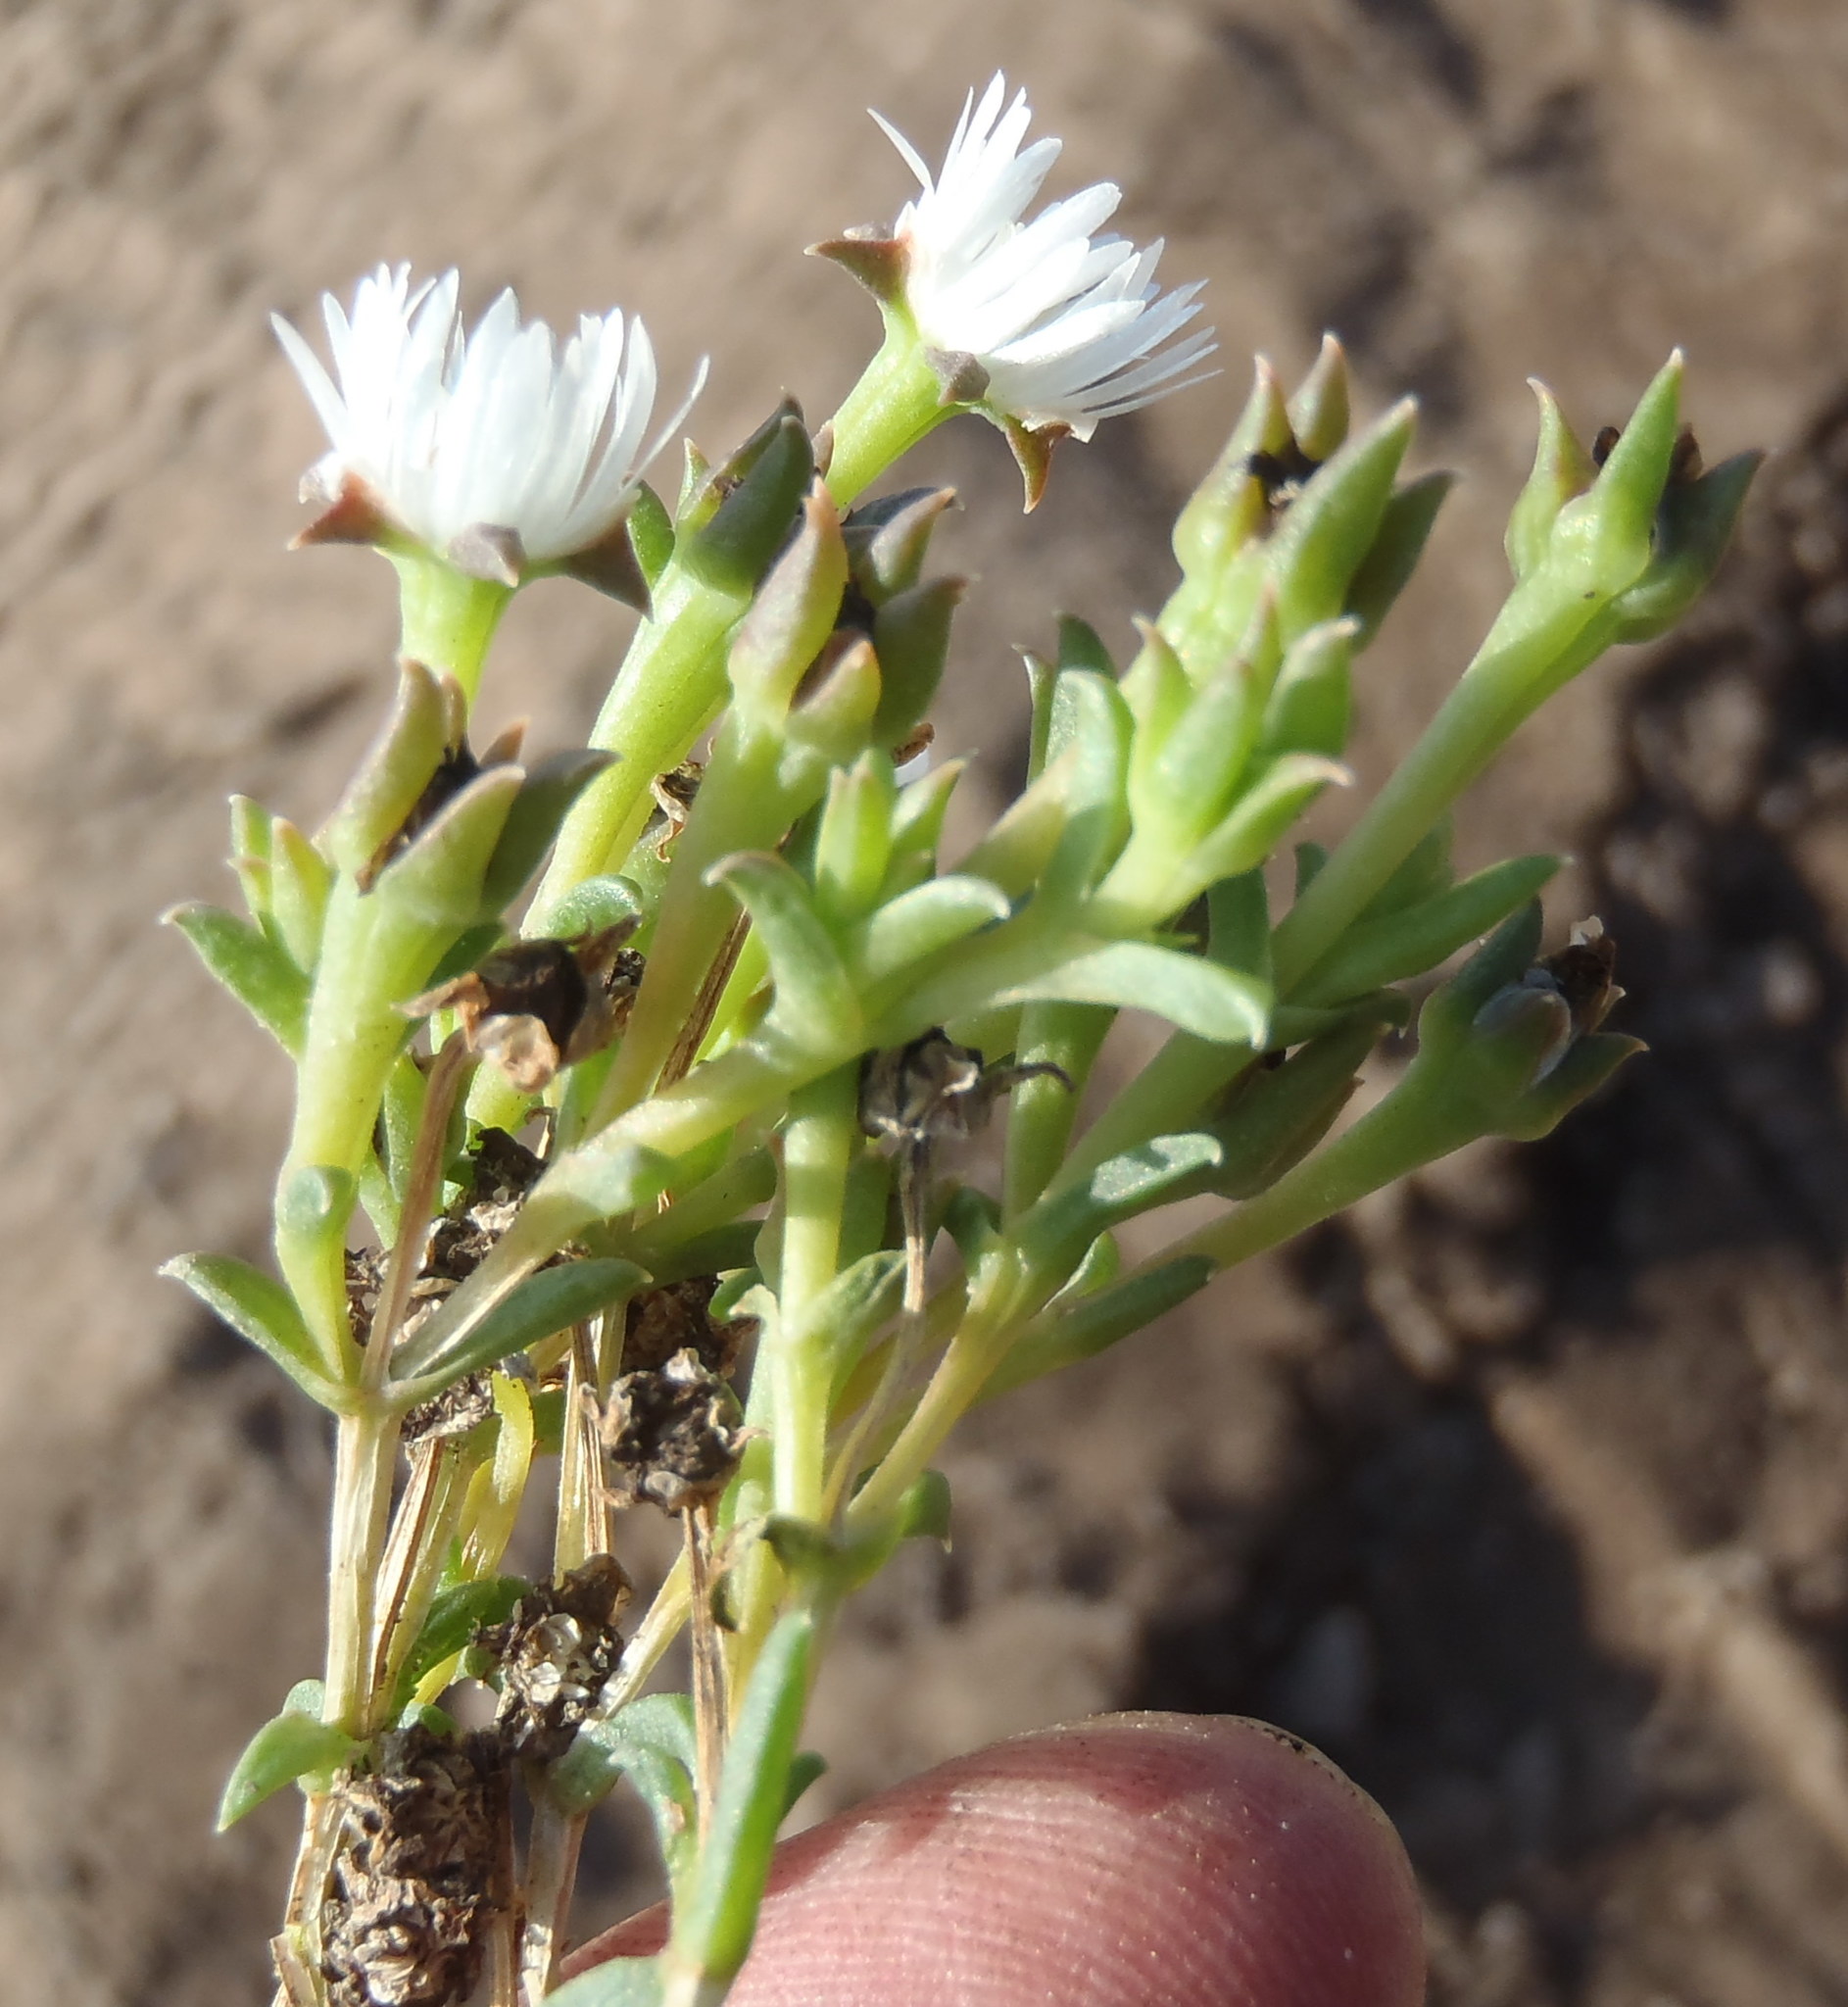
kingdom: Plantae
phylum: Tracheophyta
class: Magnoliopsida
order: Caryophyllales
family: Aizoaceae
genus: Delosperma
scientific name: Delosperma inconspicuum
